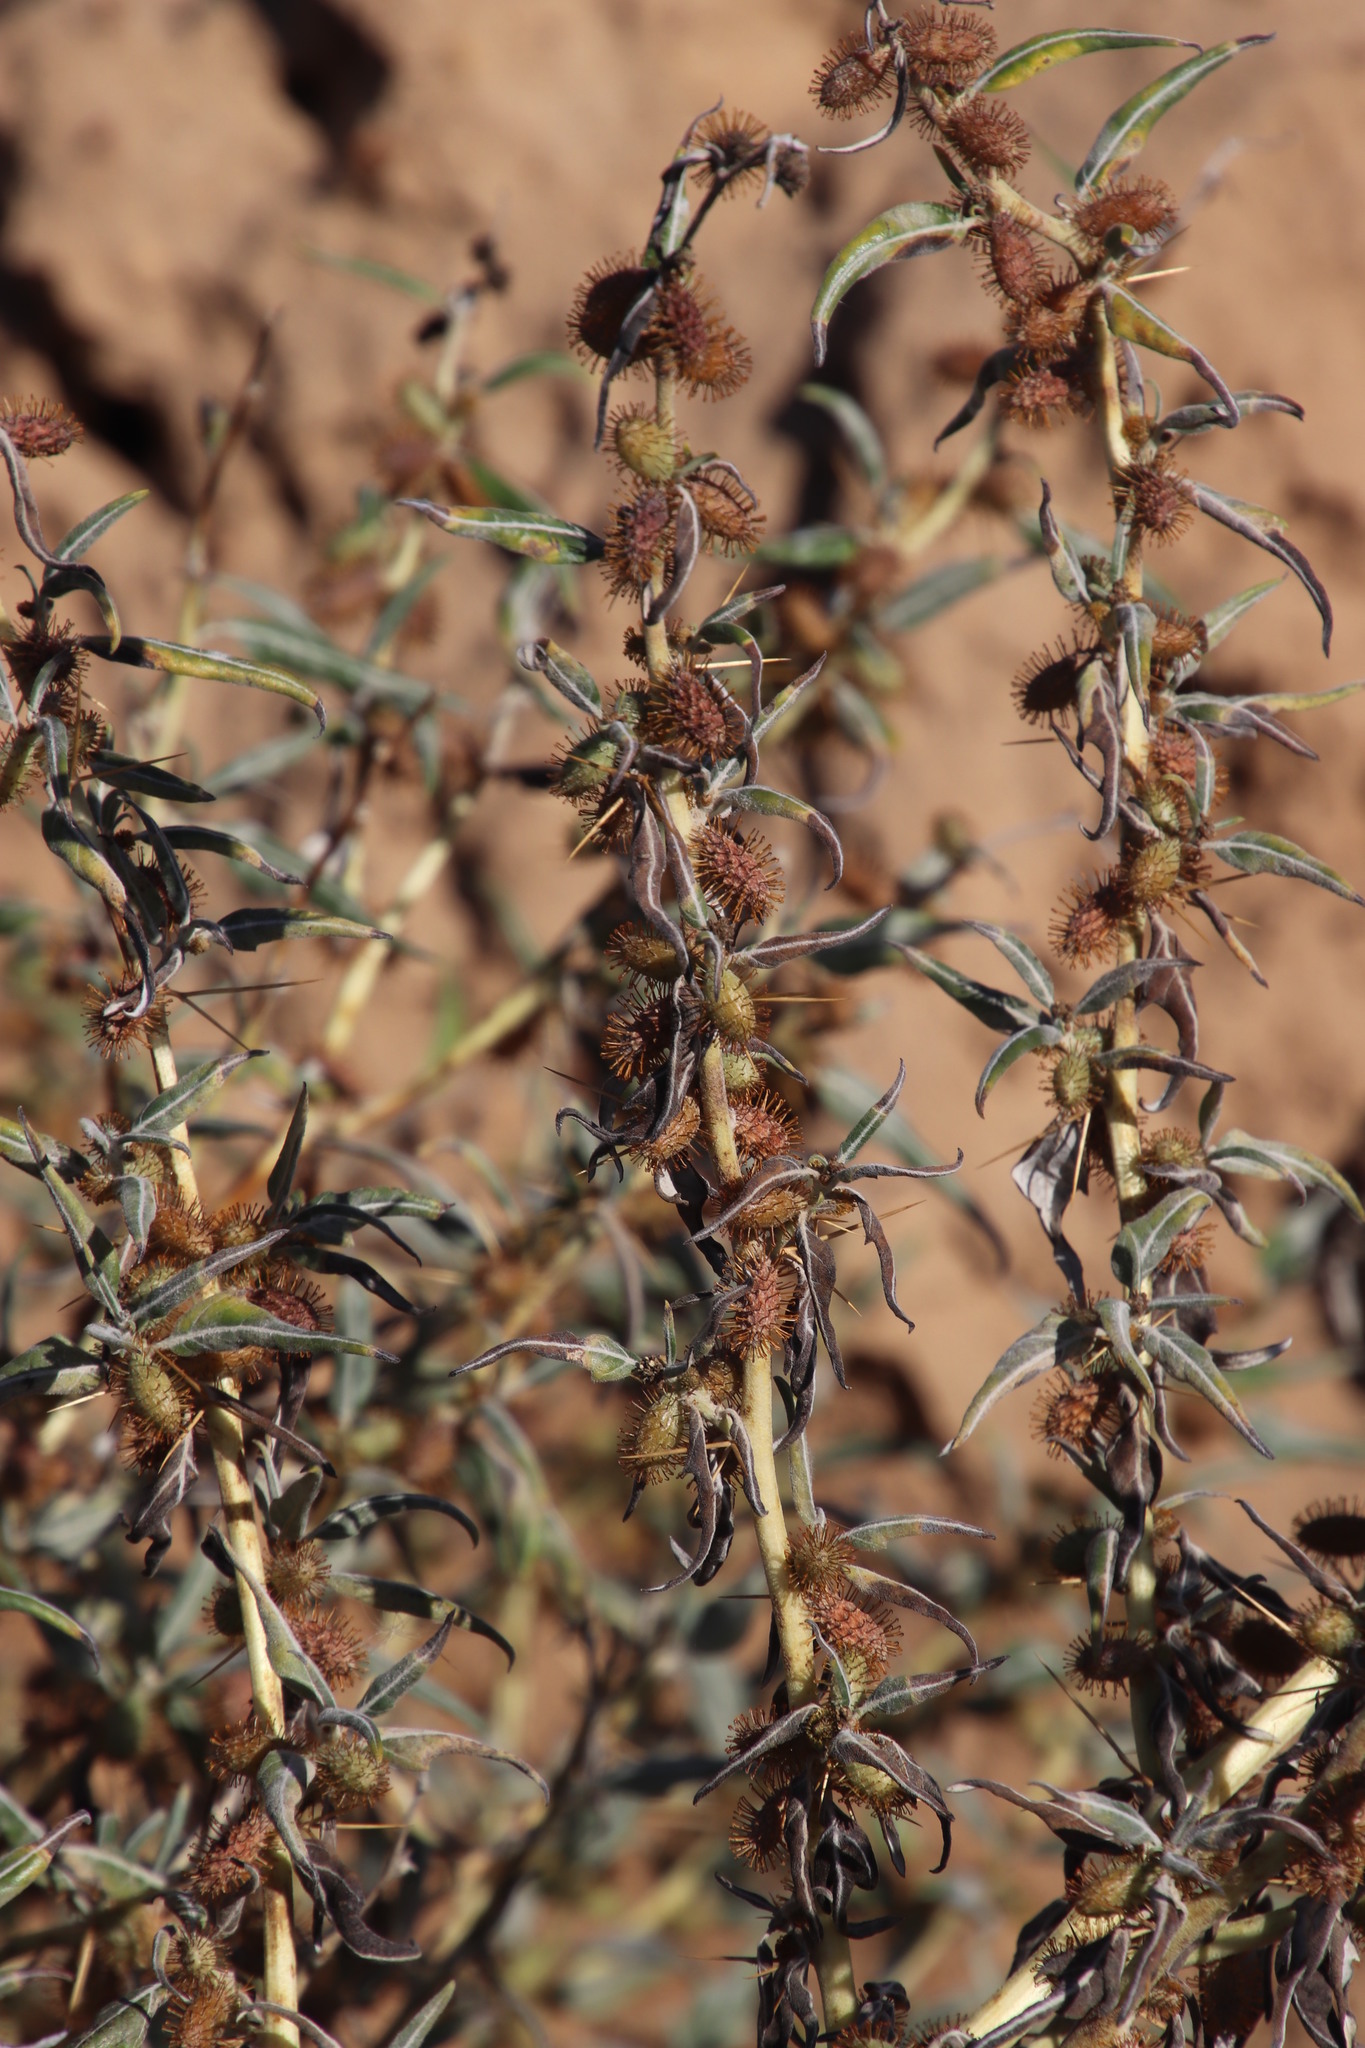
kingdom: Plantae
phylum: Tracheophyta
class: Magnoliopsida
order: Asterales
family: Asteraceae
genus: Xanthium
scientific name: Xanthium spinosum
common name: Spiny cocklebur
